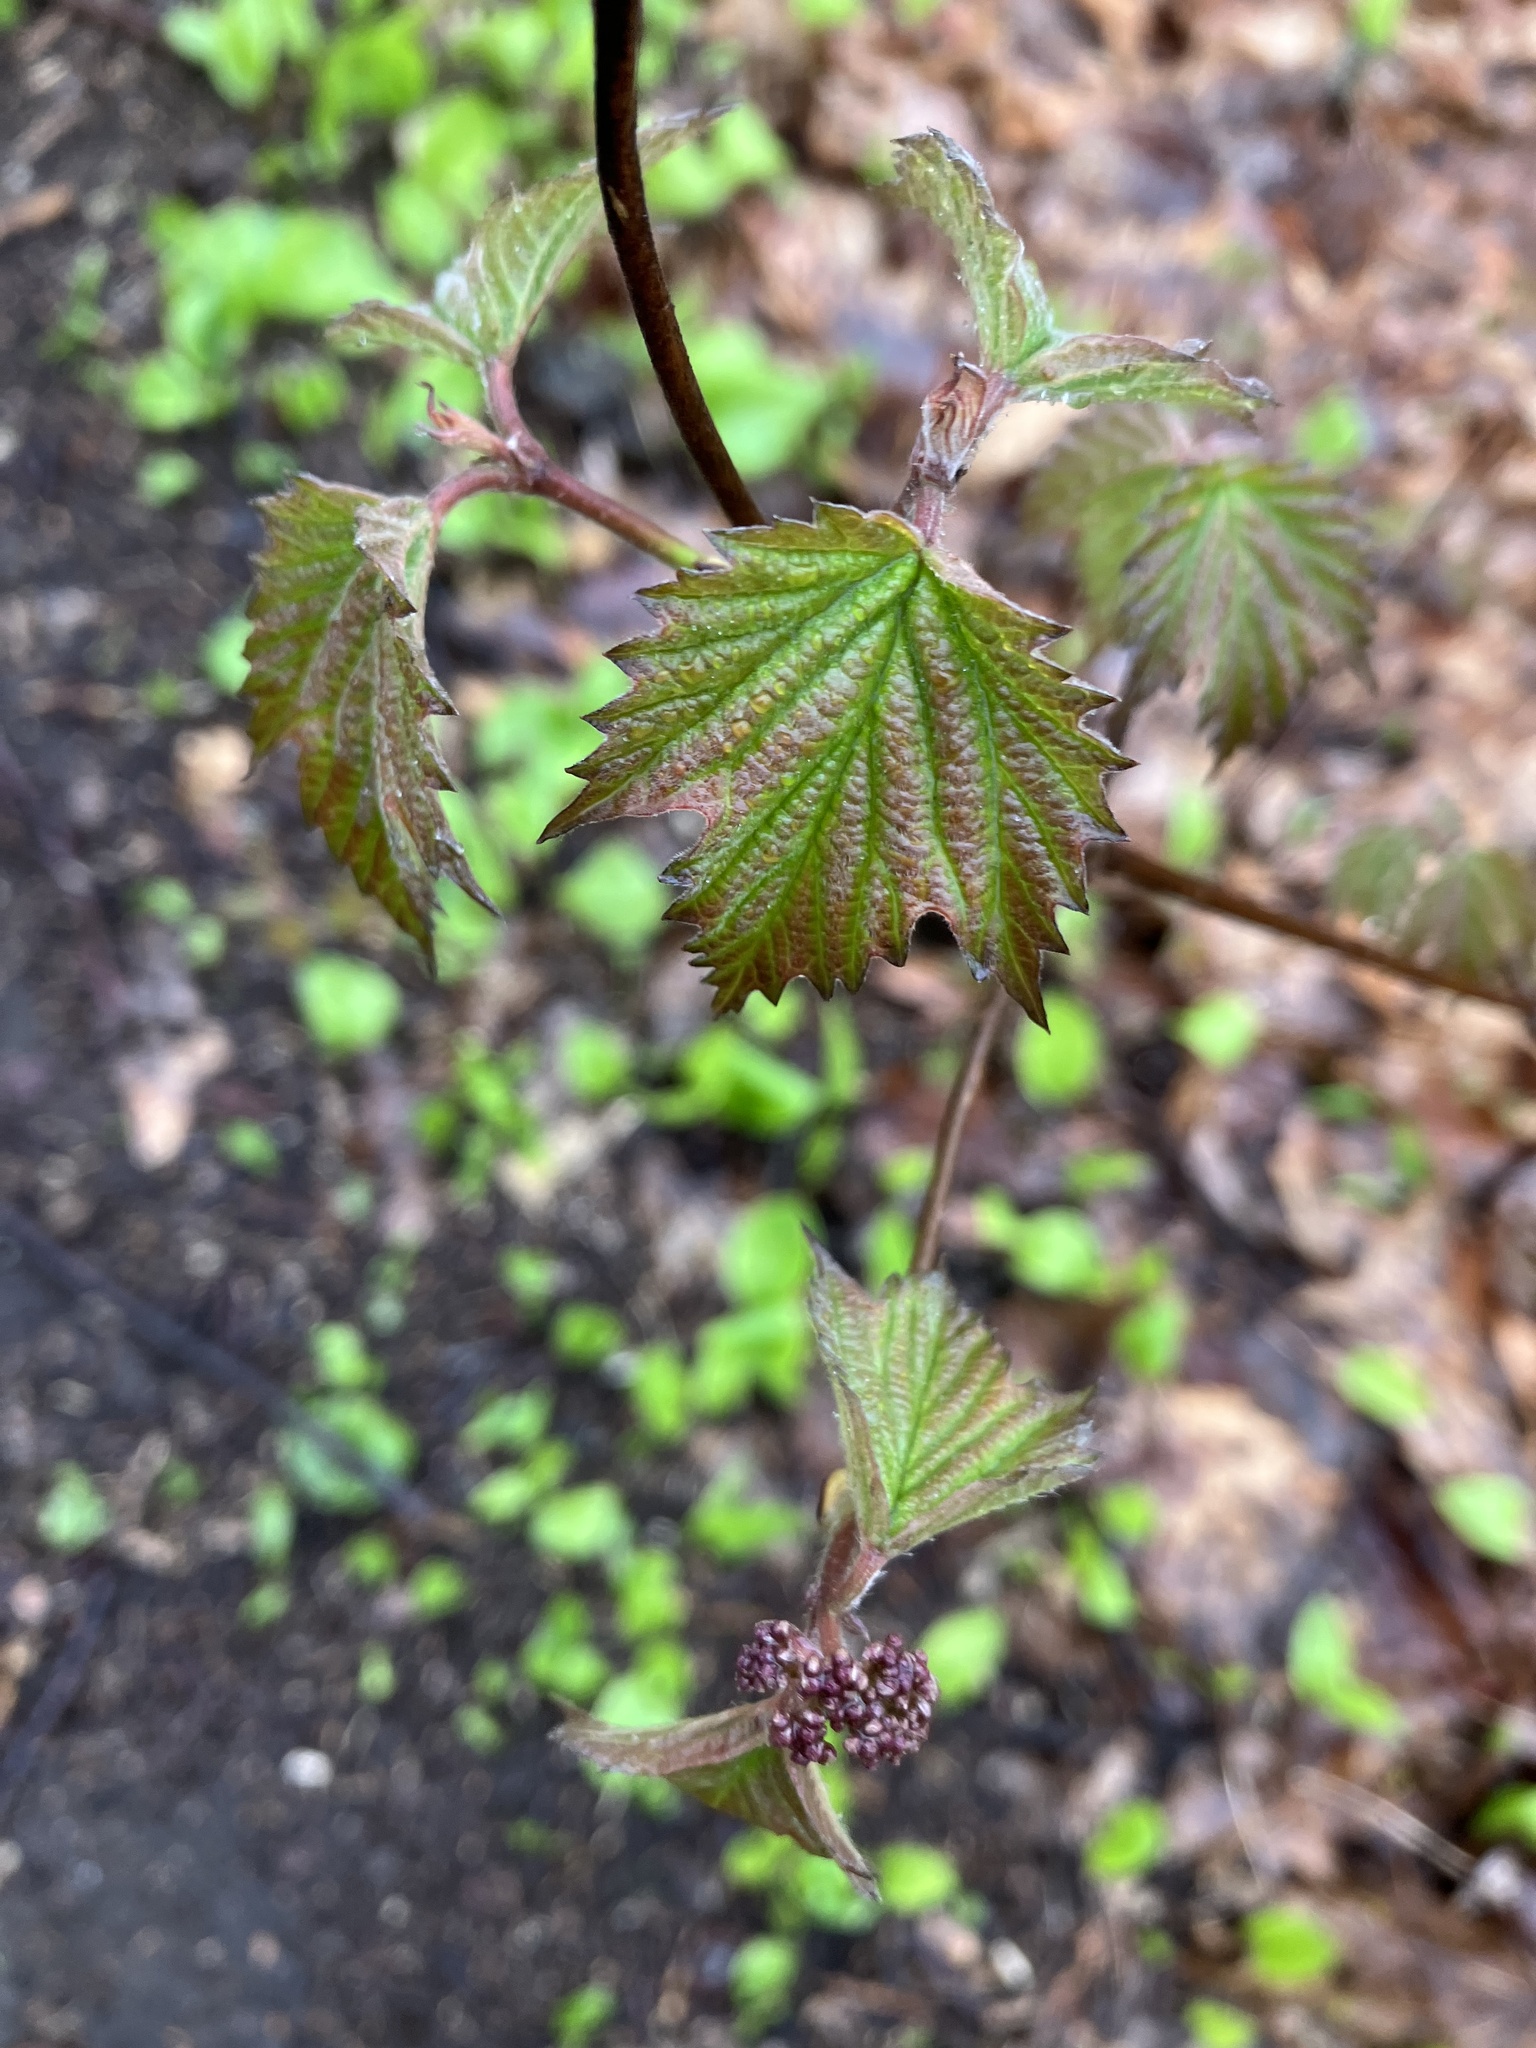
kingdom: Plantae
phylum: Tracheophyta
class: Magnoliopsida
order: Dipsacales
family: Viburnaceae
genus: Viburnum
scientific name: Viburnum acerifolium
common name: Dockmackie
